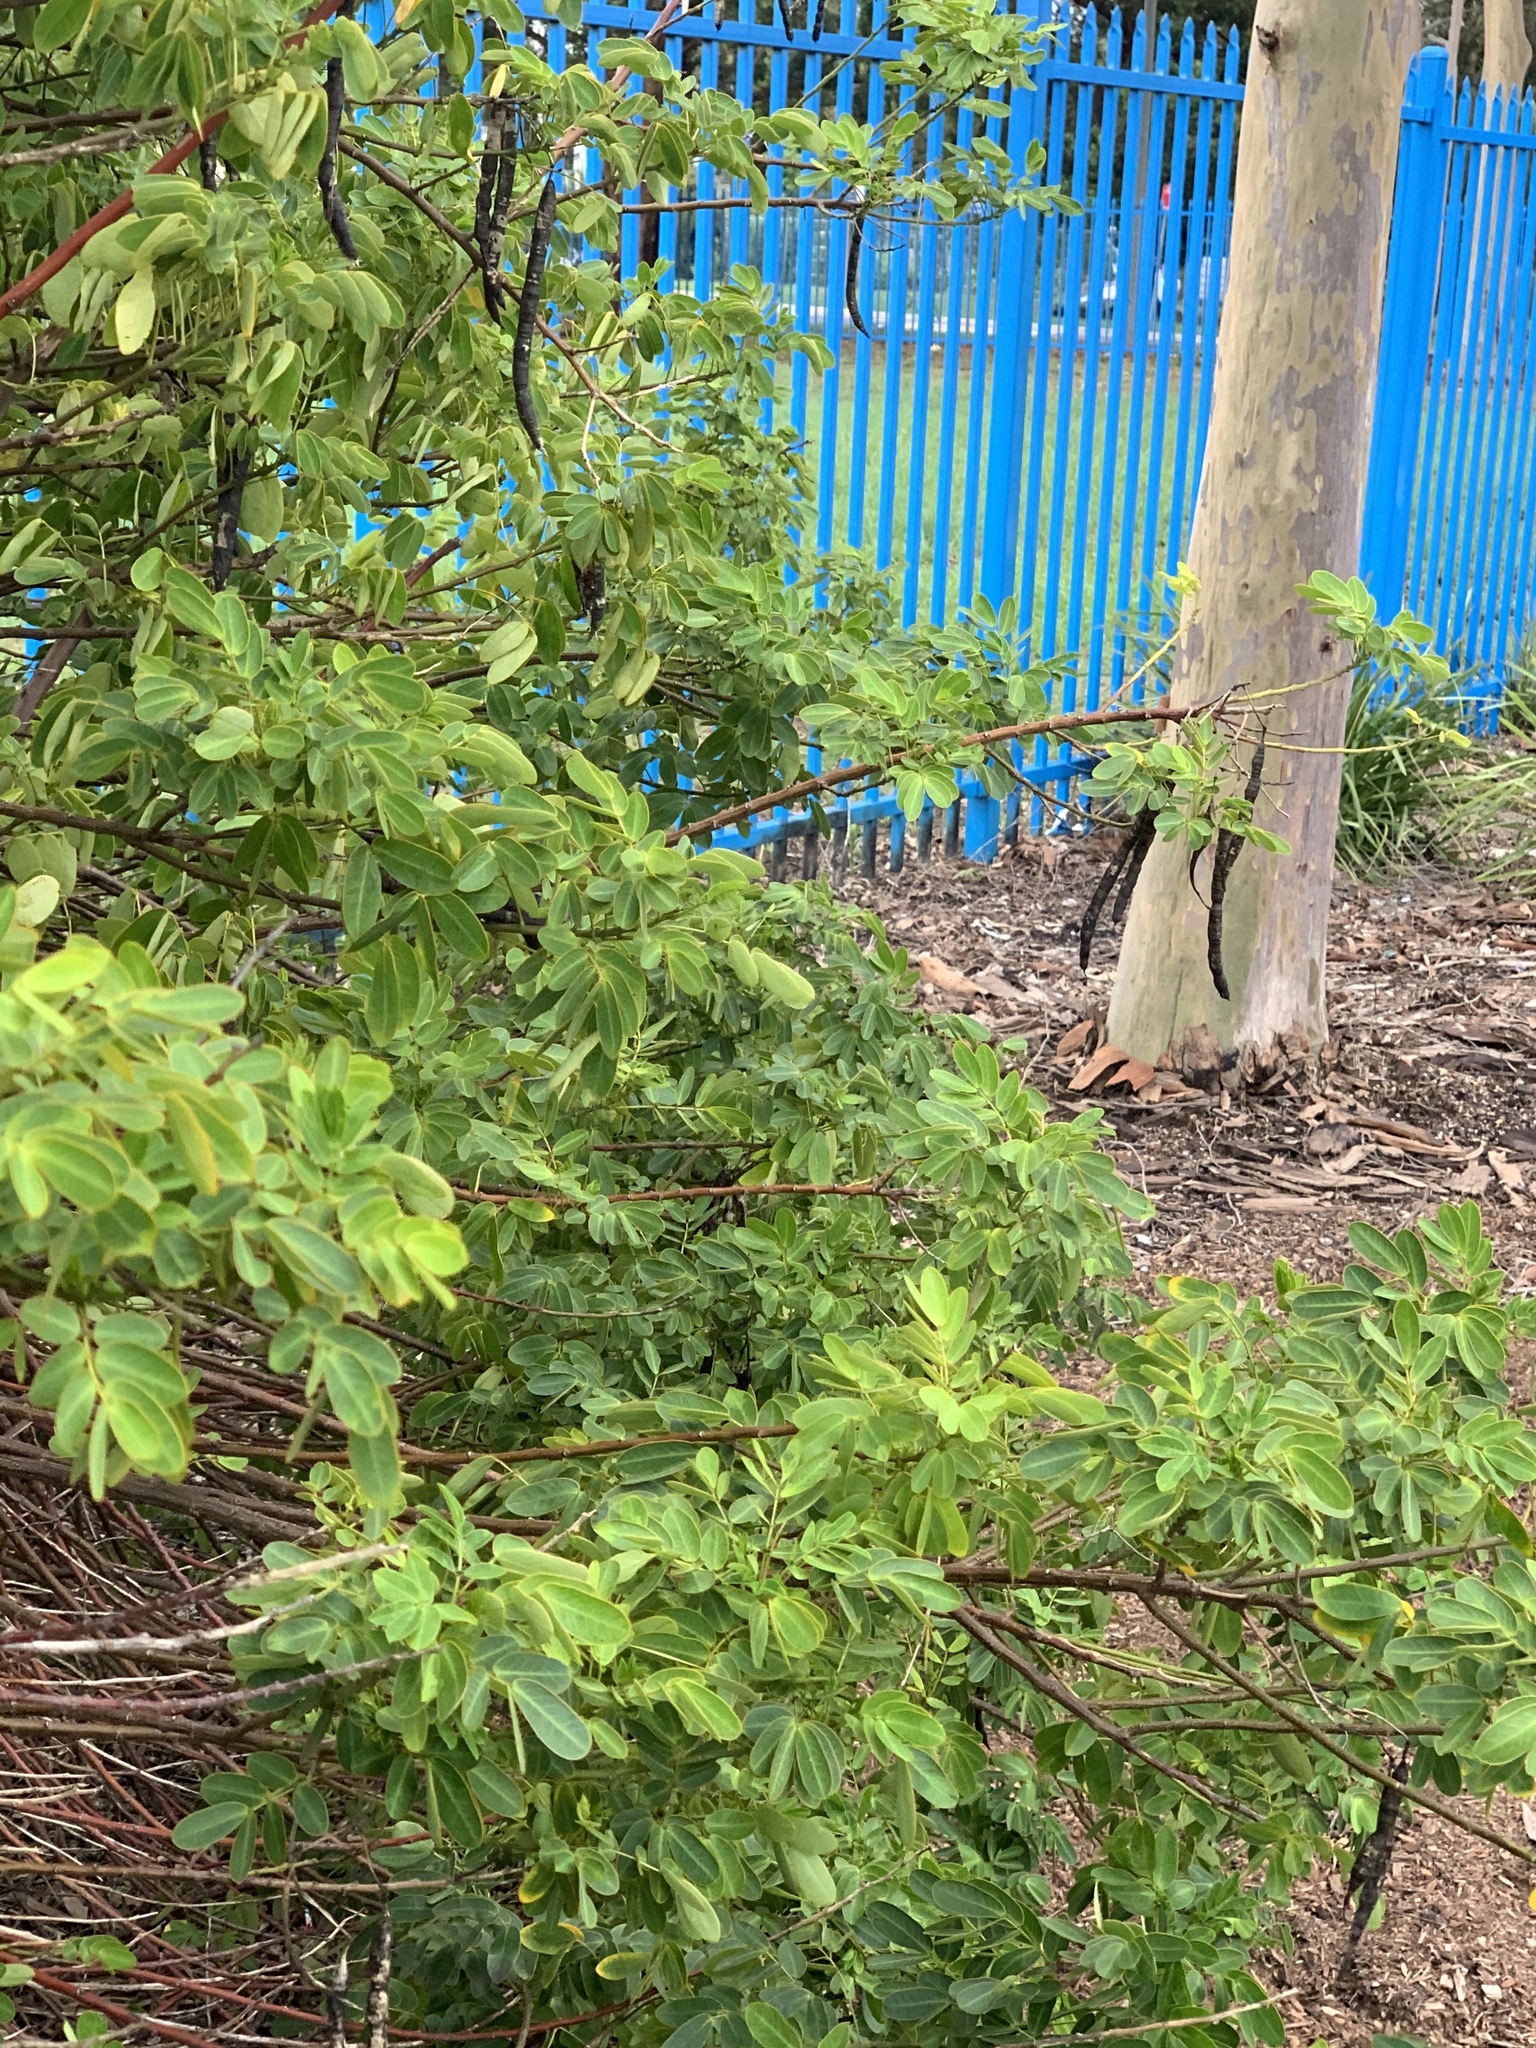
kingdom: Plantae
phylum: Tracheophyta
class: Magnoliopsida
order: Fabales
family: Fabaceae
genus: Senna
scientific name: Senna pendula
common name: Easter cassia
